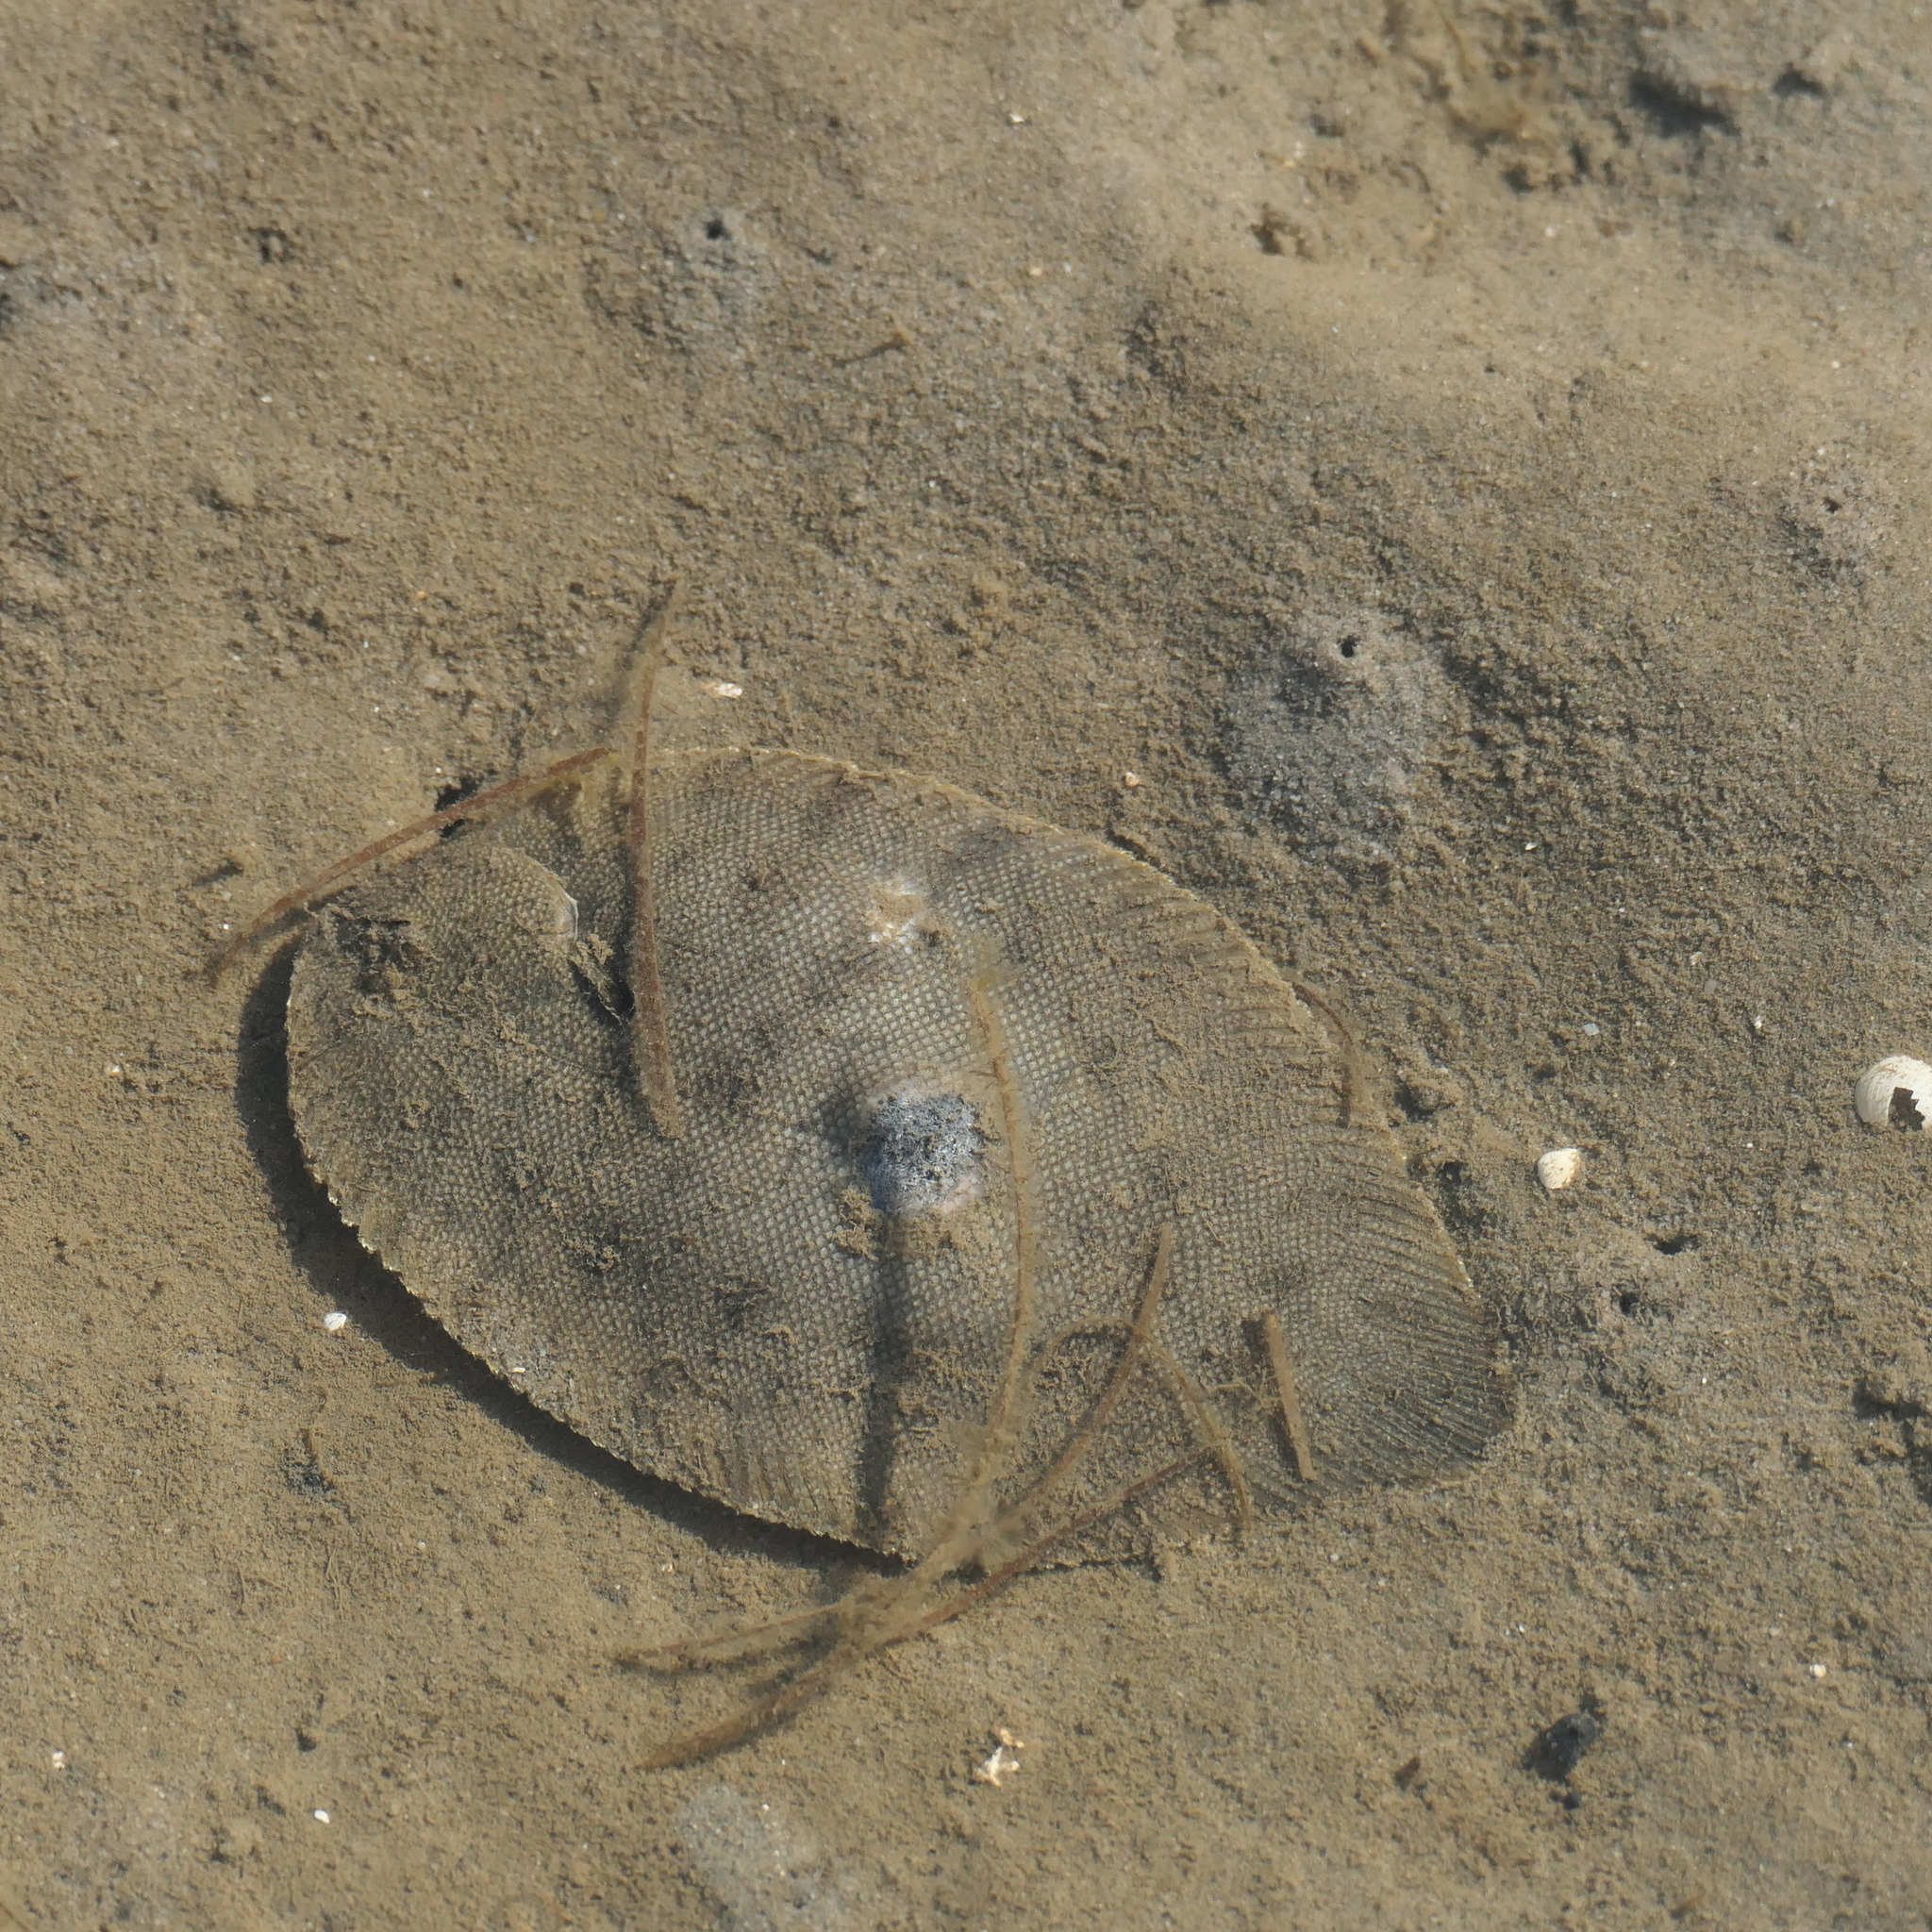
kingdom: Animalia
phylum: Chordata
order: Pleuronectiformes
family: Soleidae
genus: Brachirus
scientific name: Brachirus niger
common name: Black sole
